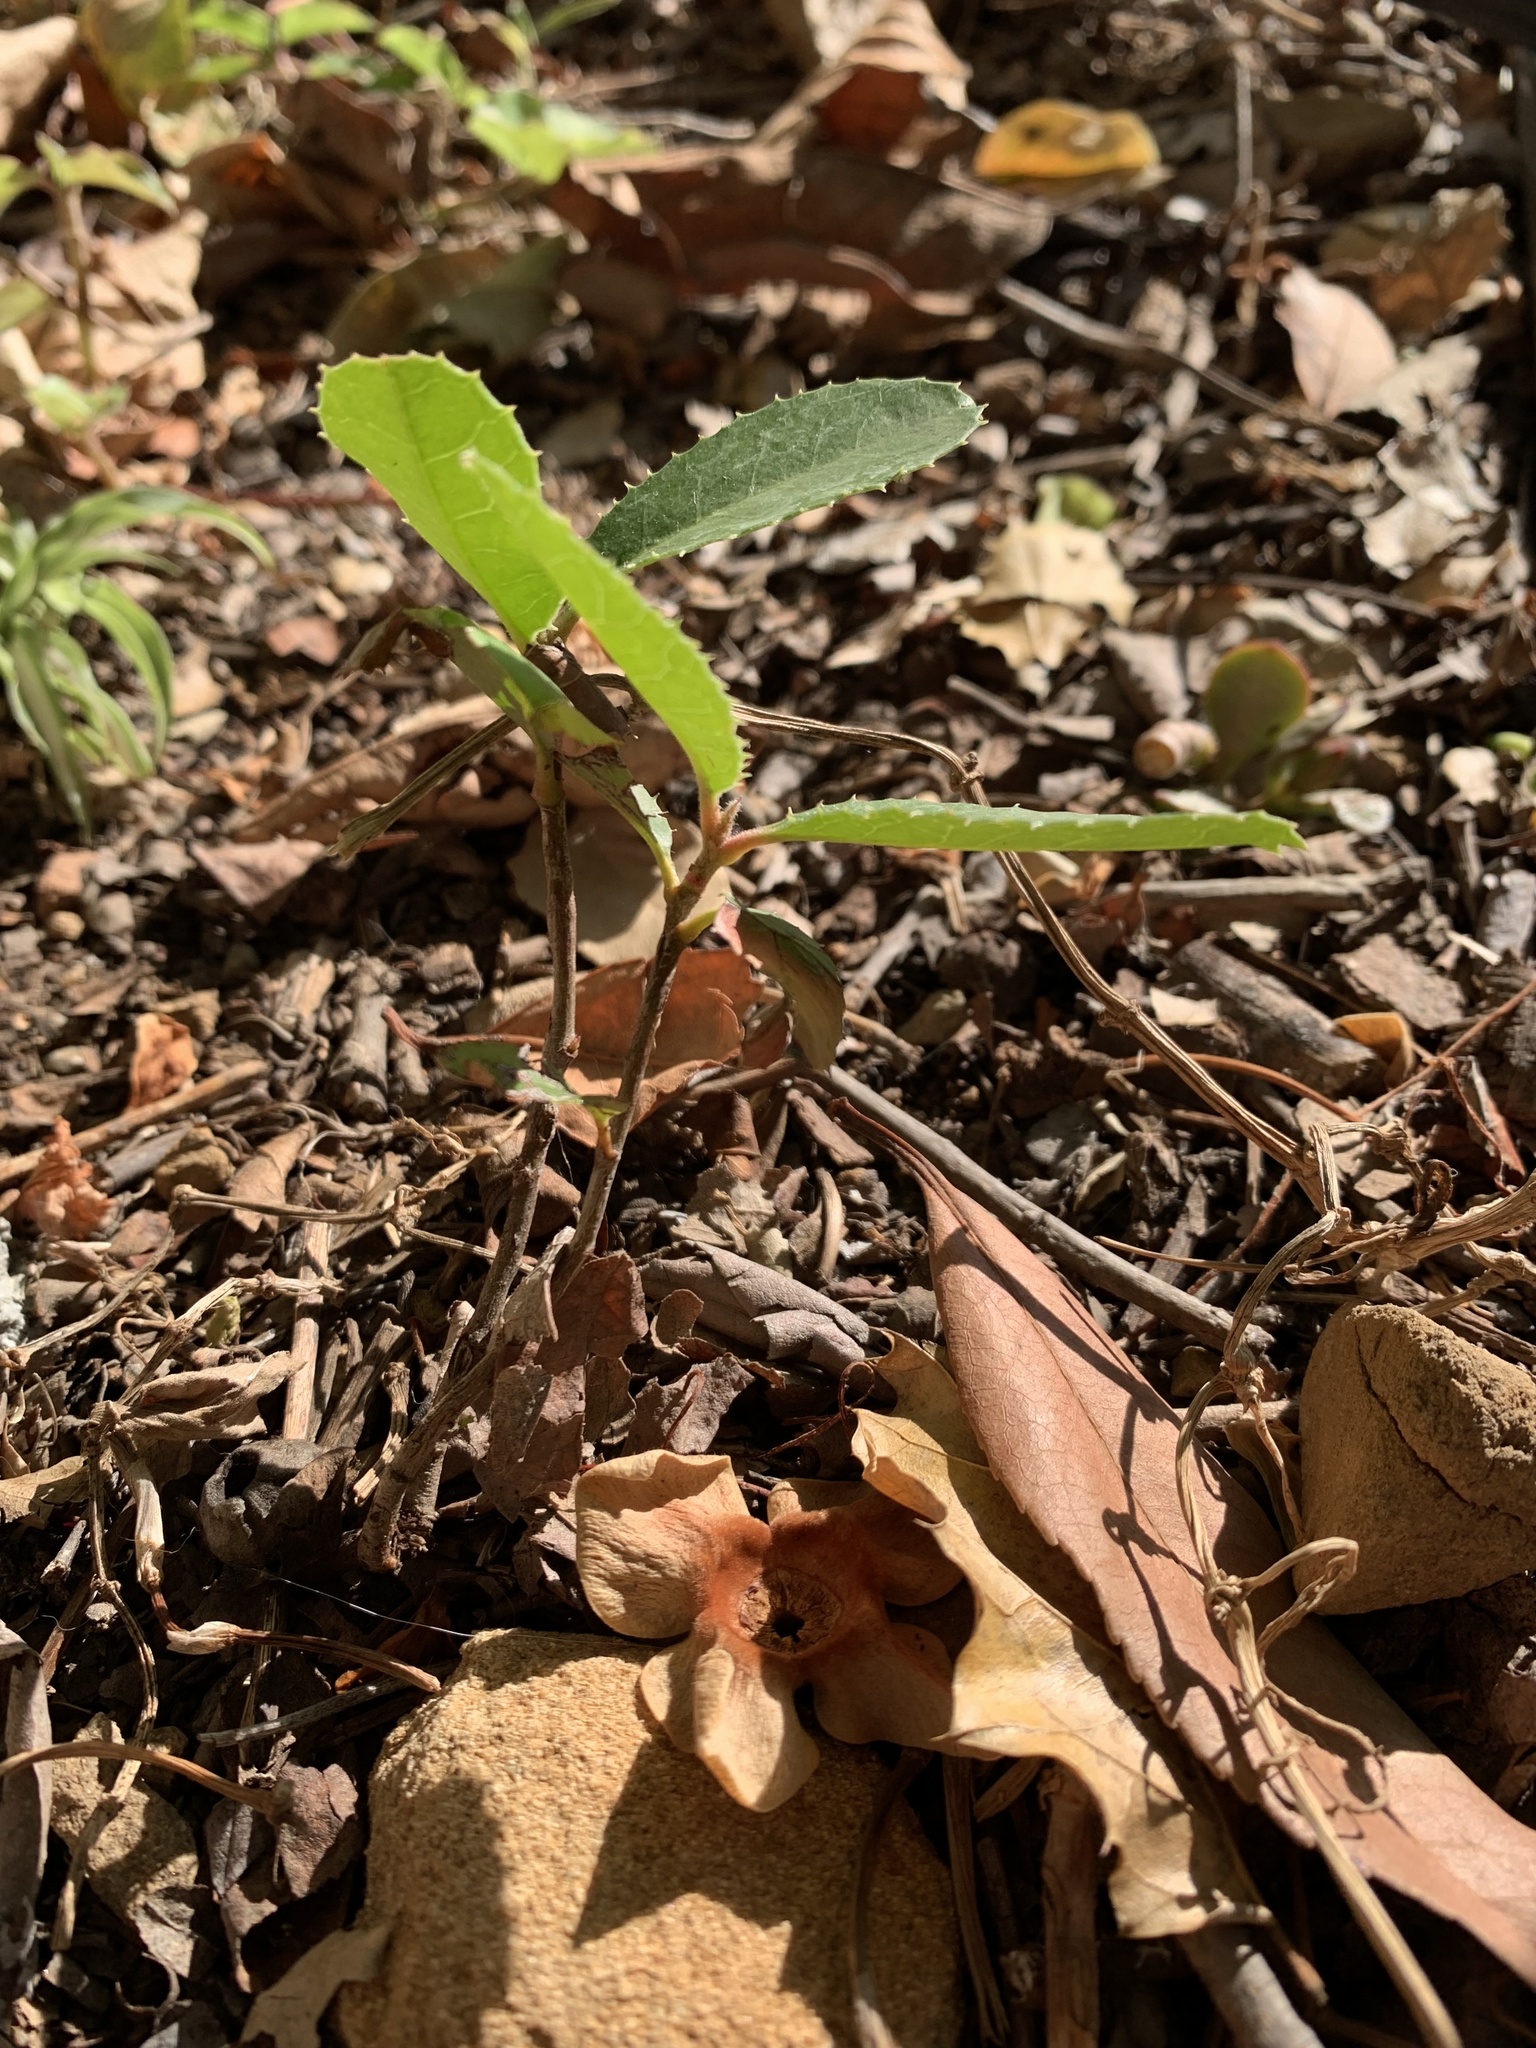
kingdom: Plantae
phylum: Tracheophyta
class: Magnoliopsida
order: Rosales
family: Rosaceae
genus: Heteromeles
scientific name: Heteromeles arbutifolia
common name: California-holly
